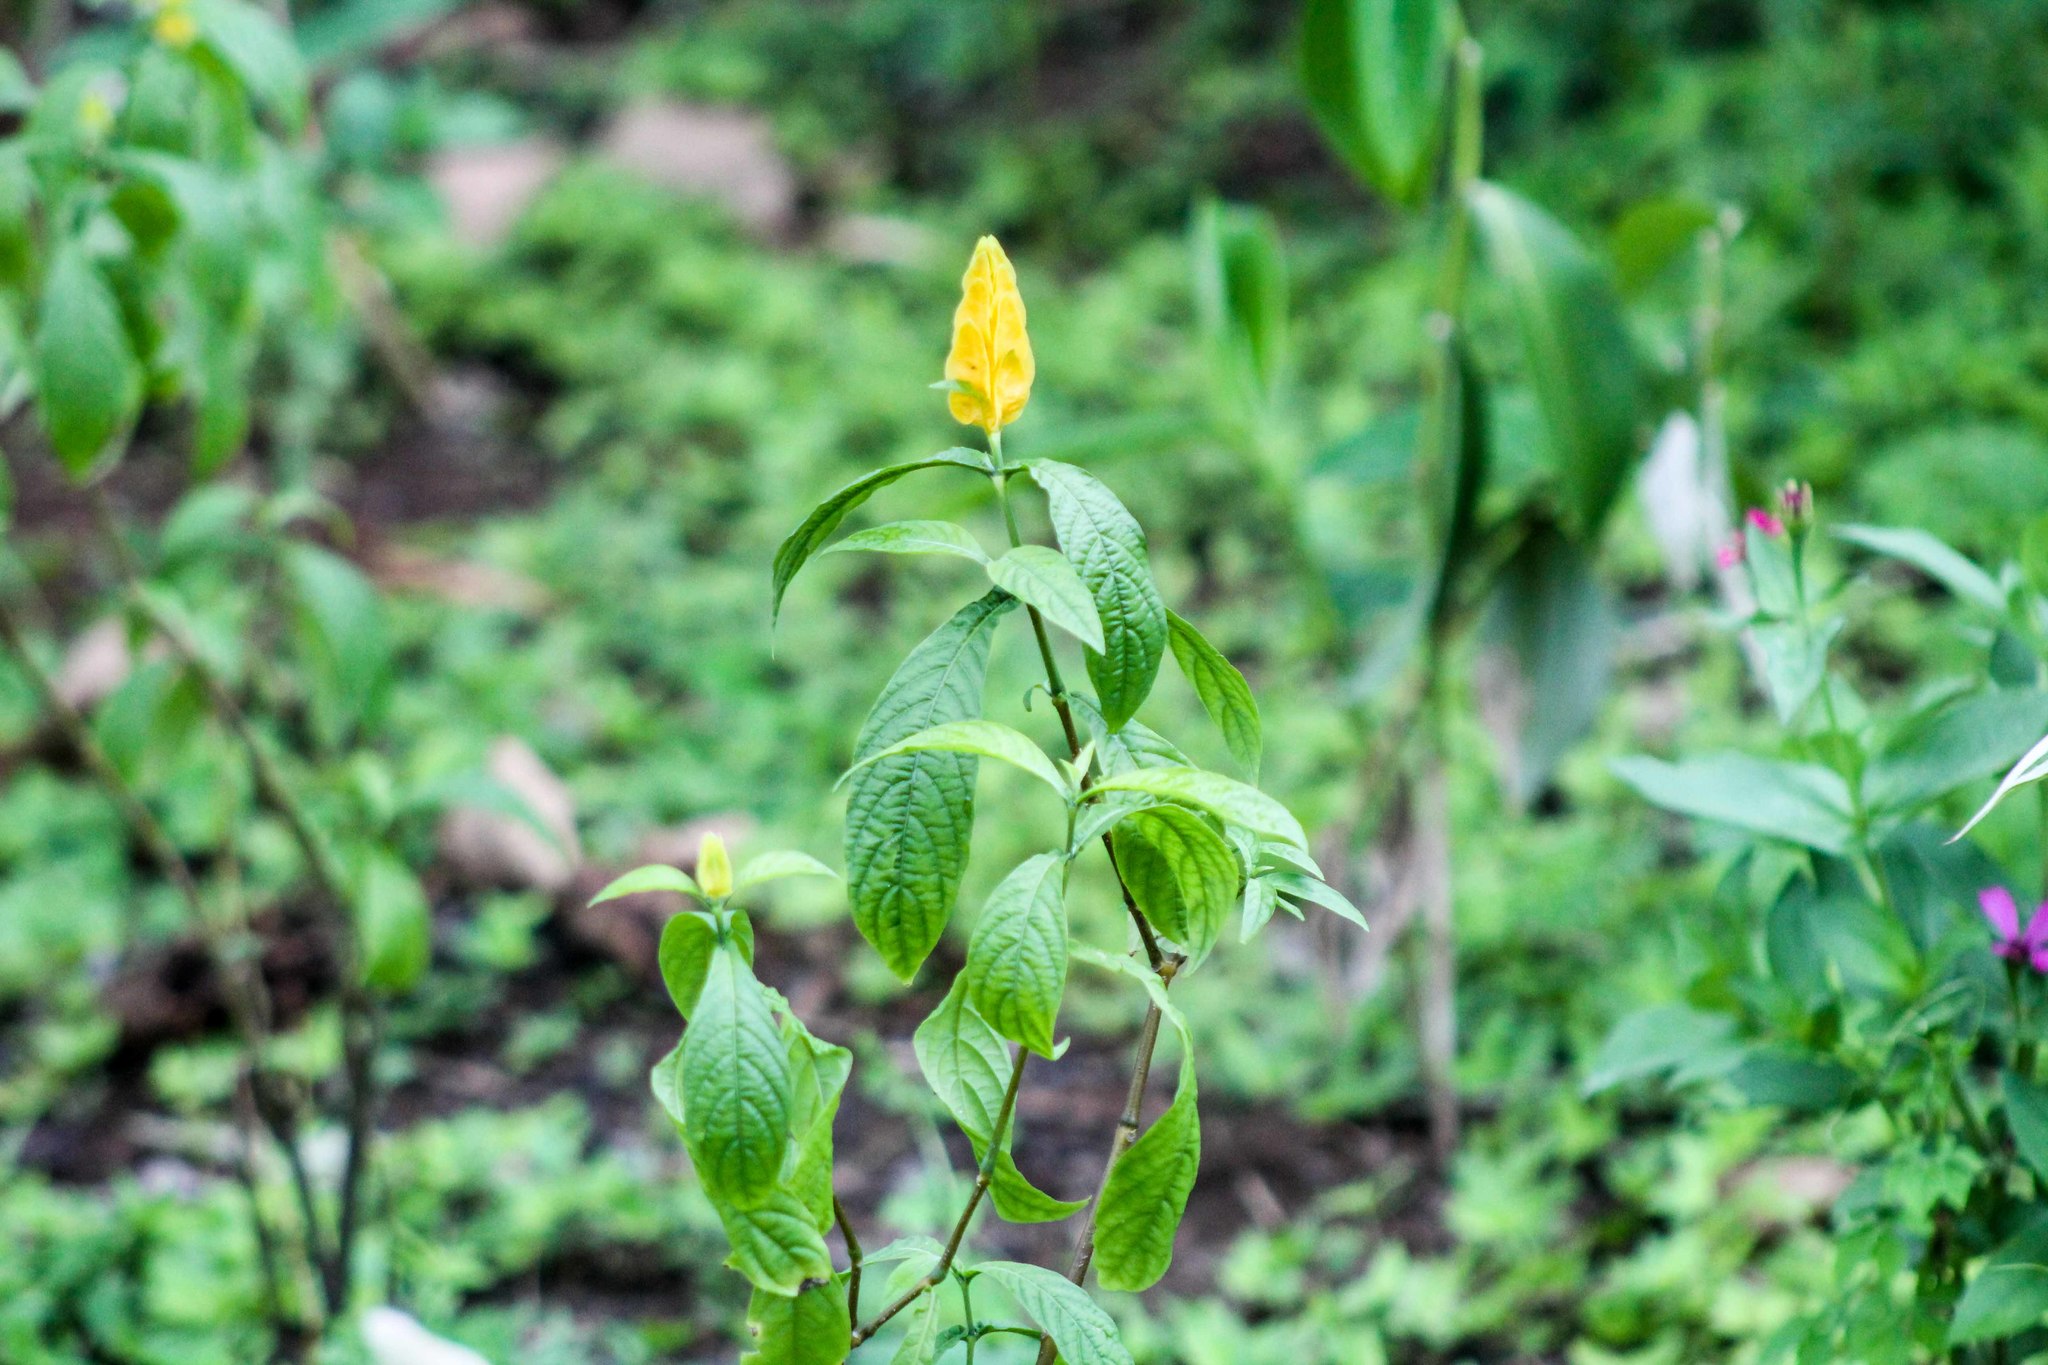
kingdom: Plantae
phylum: Tracheophyta
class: Magnoliopsida
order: Lamiales
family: Acanthaceae
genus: Pachystachys
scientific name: Pachystachys lutea
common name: Golden shrimp-plant
